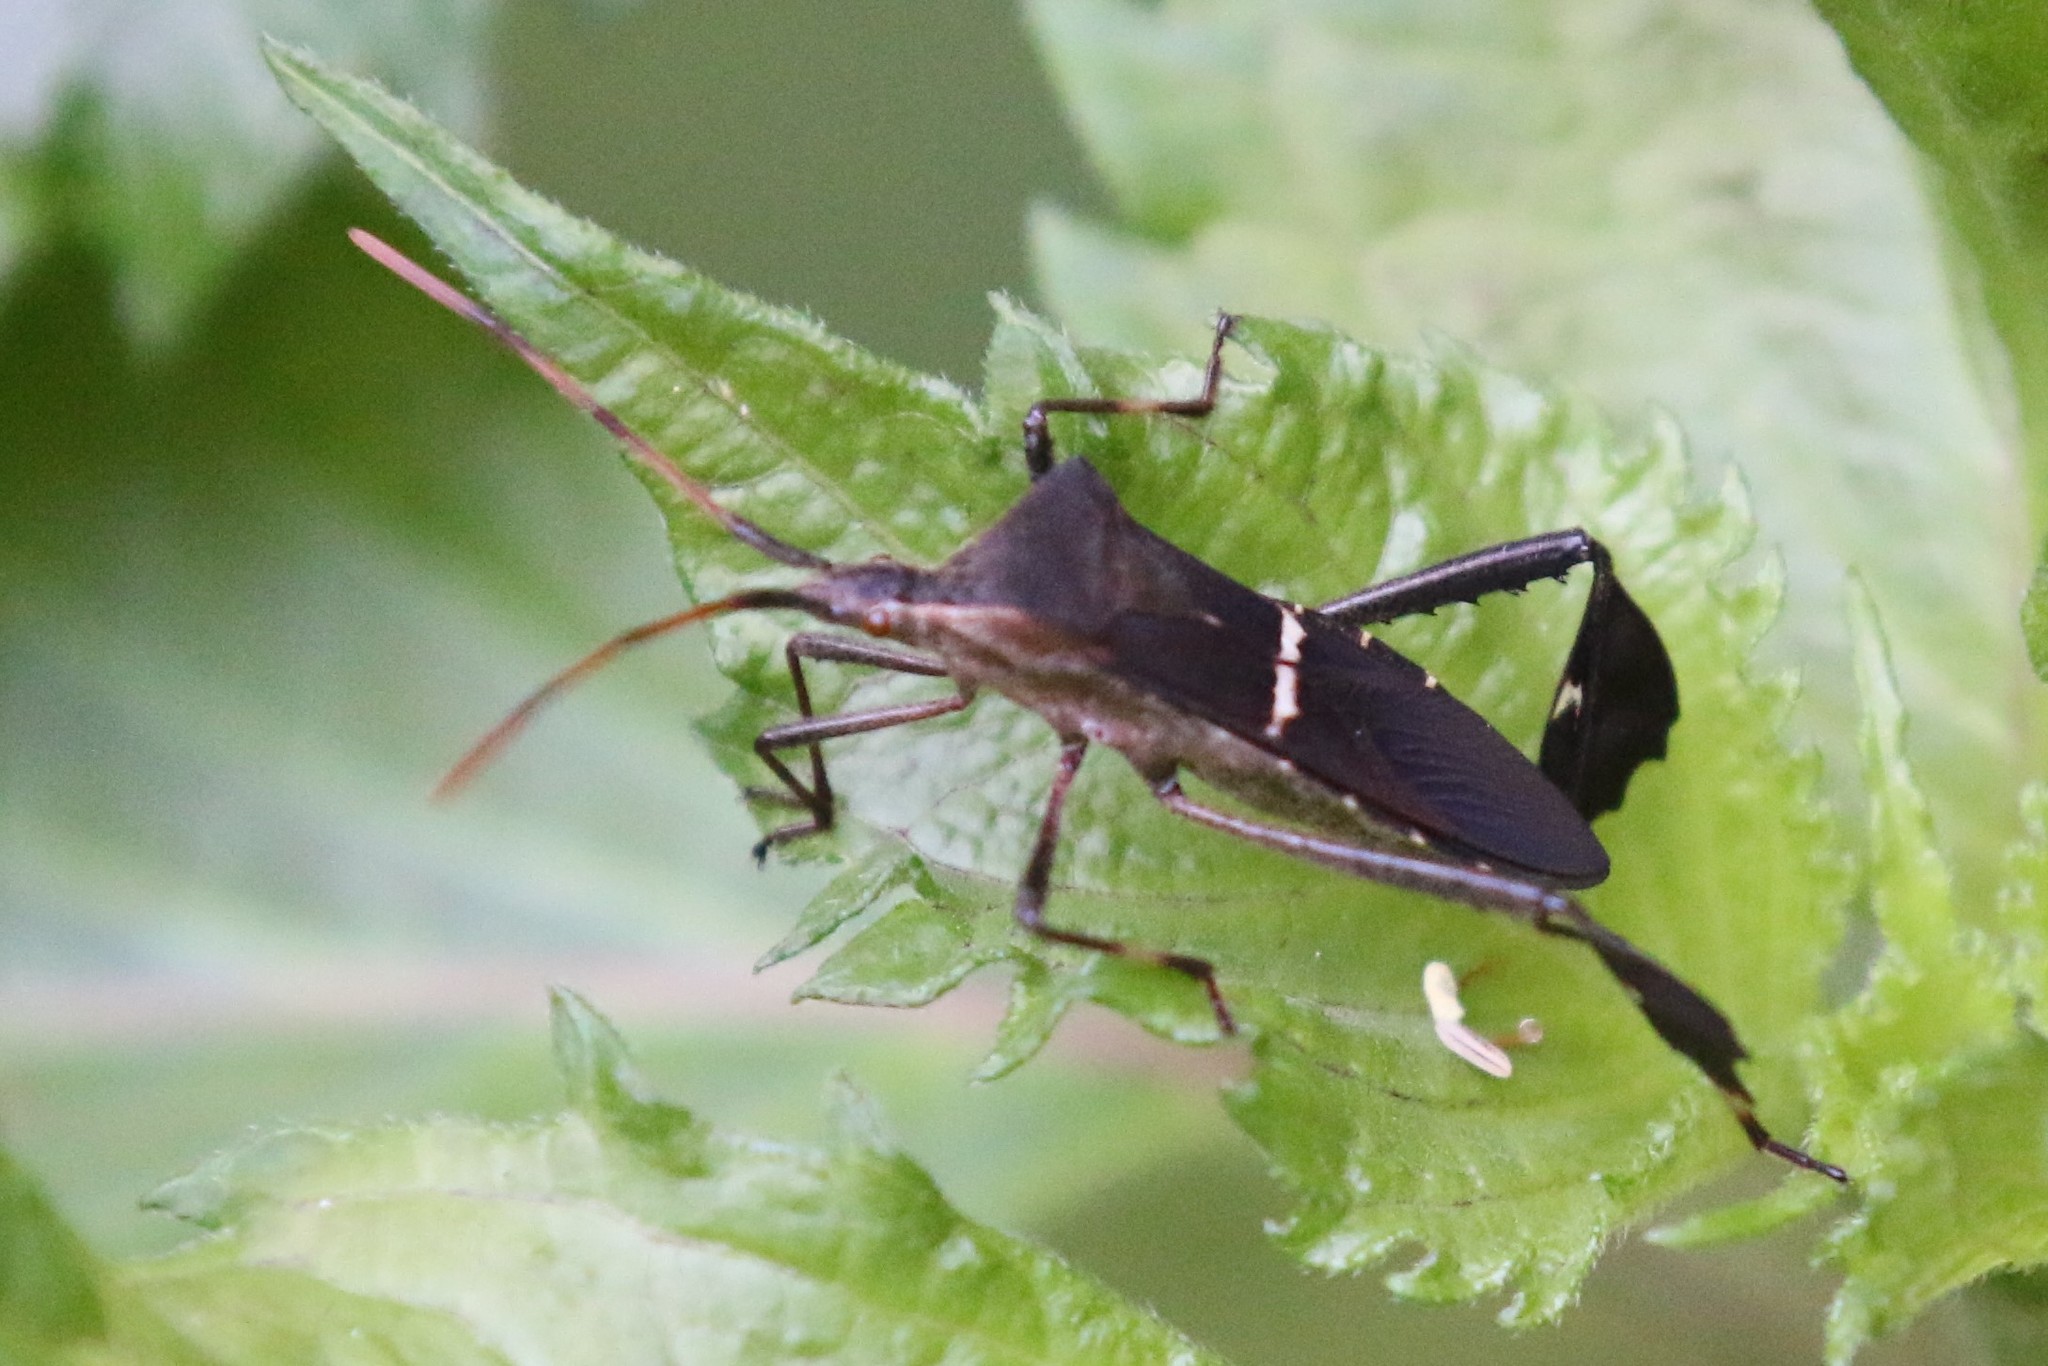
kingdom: Animalia
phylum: Arthropoda
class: Insecta
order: Hemiptera
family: Coreidae
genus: Leptoglossus
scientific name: Leptoglossus phyllopus
